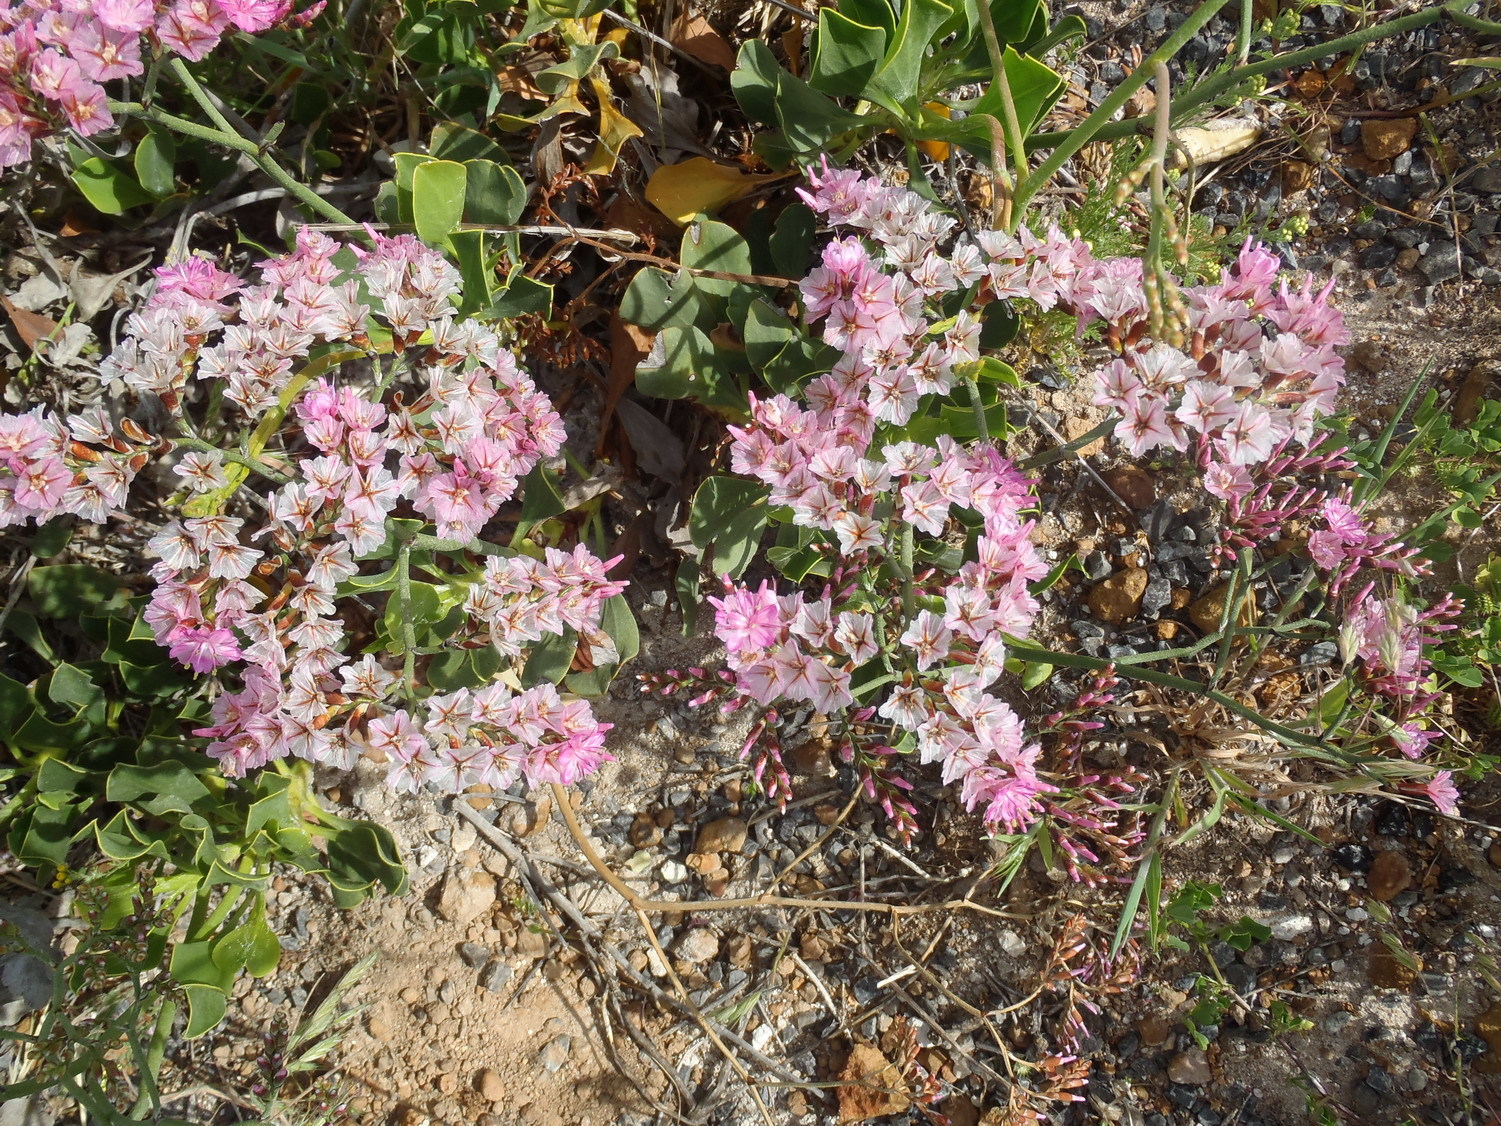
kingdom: Plantae
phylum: Tracheophyta
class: Magnoliopsida
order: Caryophyllales
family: Plumbaginaceae
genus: Limonium
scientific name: Limonium peregrinum
